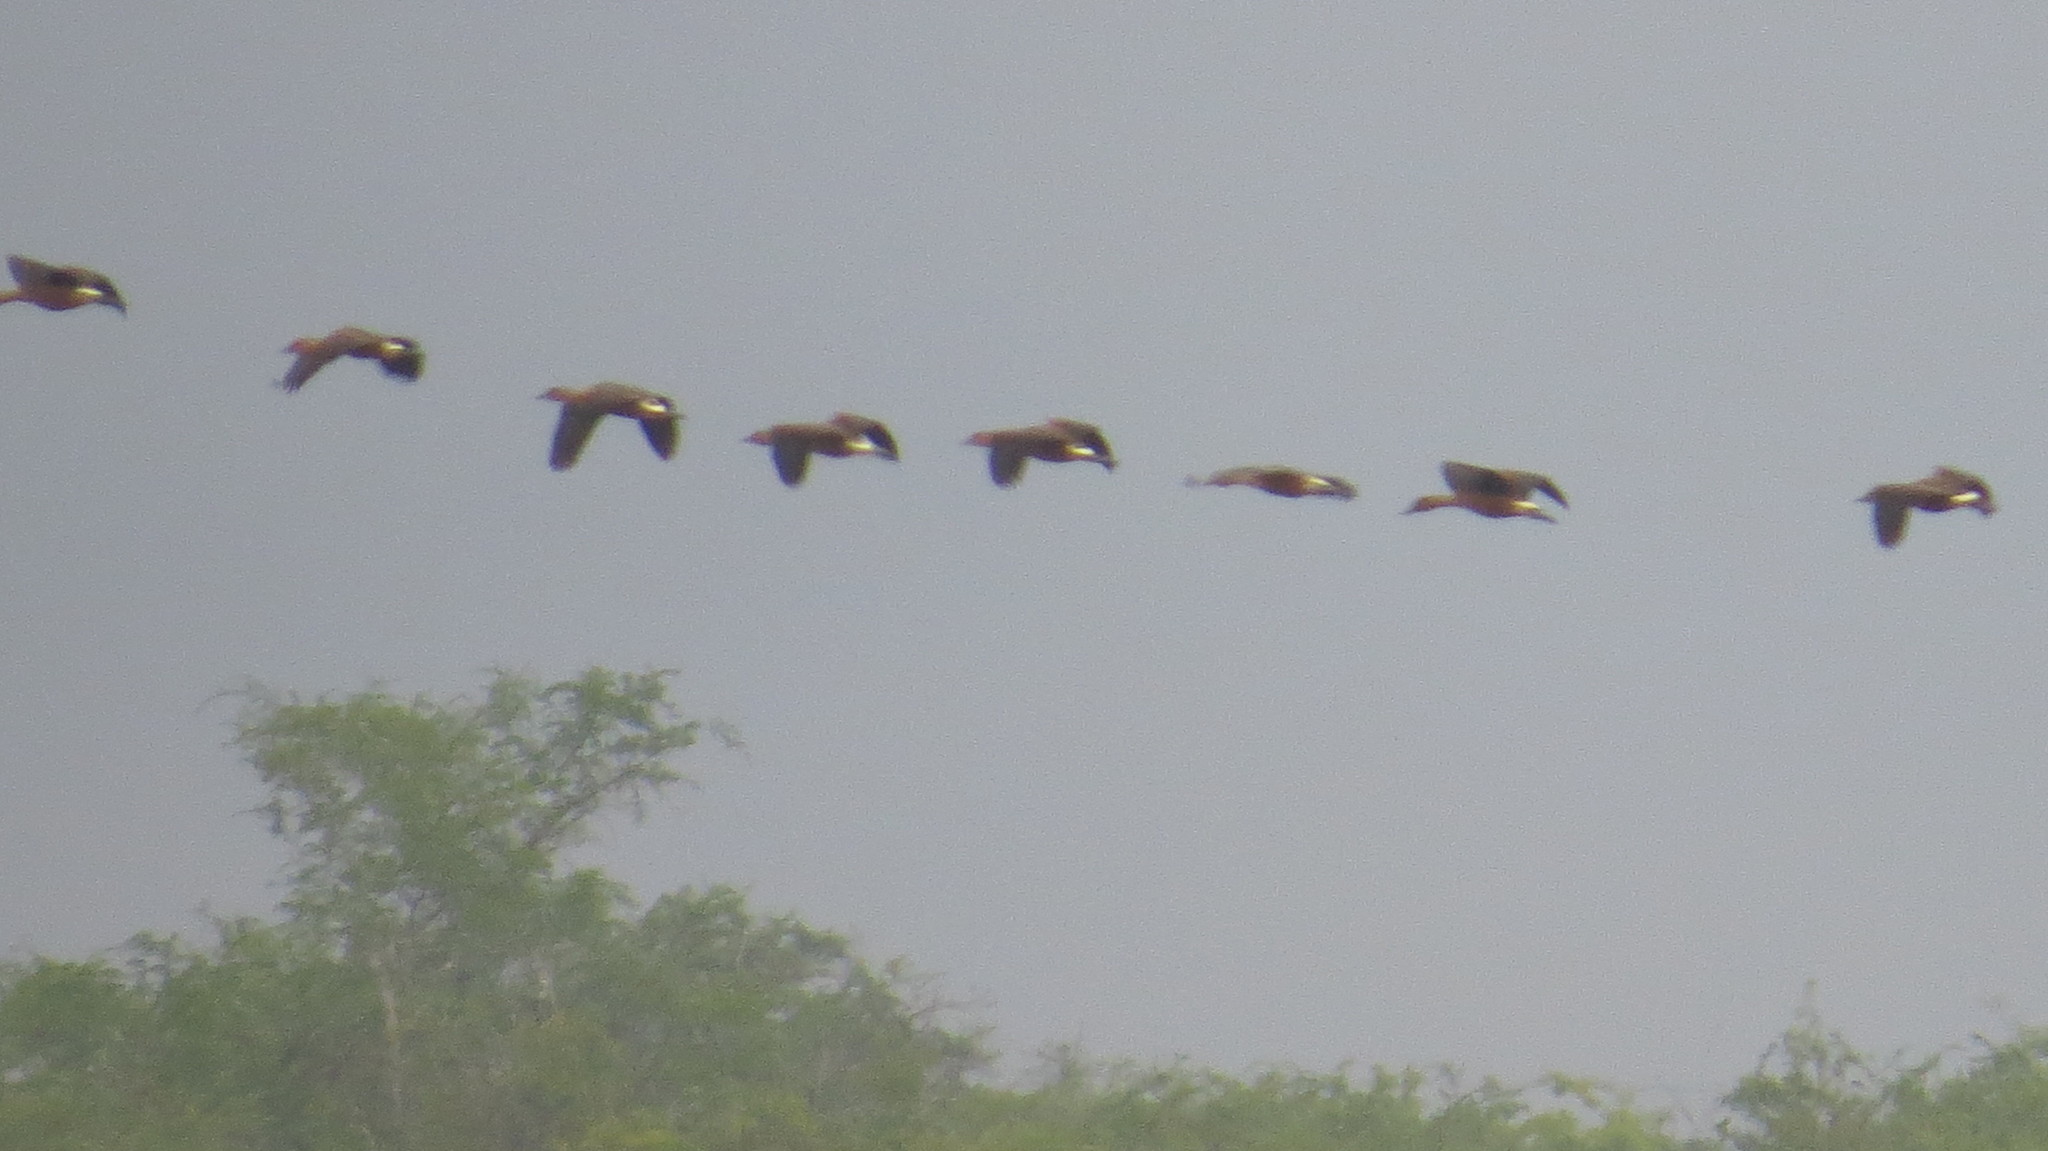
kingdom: Animalia
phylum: Chordata
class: Aves
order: Anseriformes
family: Anatidae
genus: Dendrocygna
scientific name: Dendrocygna bicolor
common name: Fulvous whistling duck
